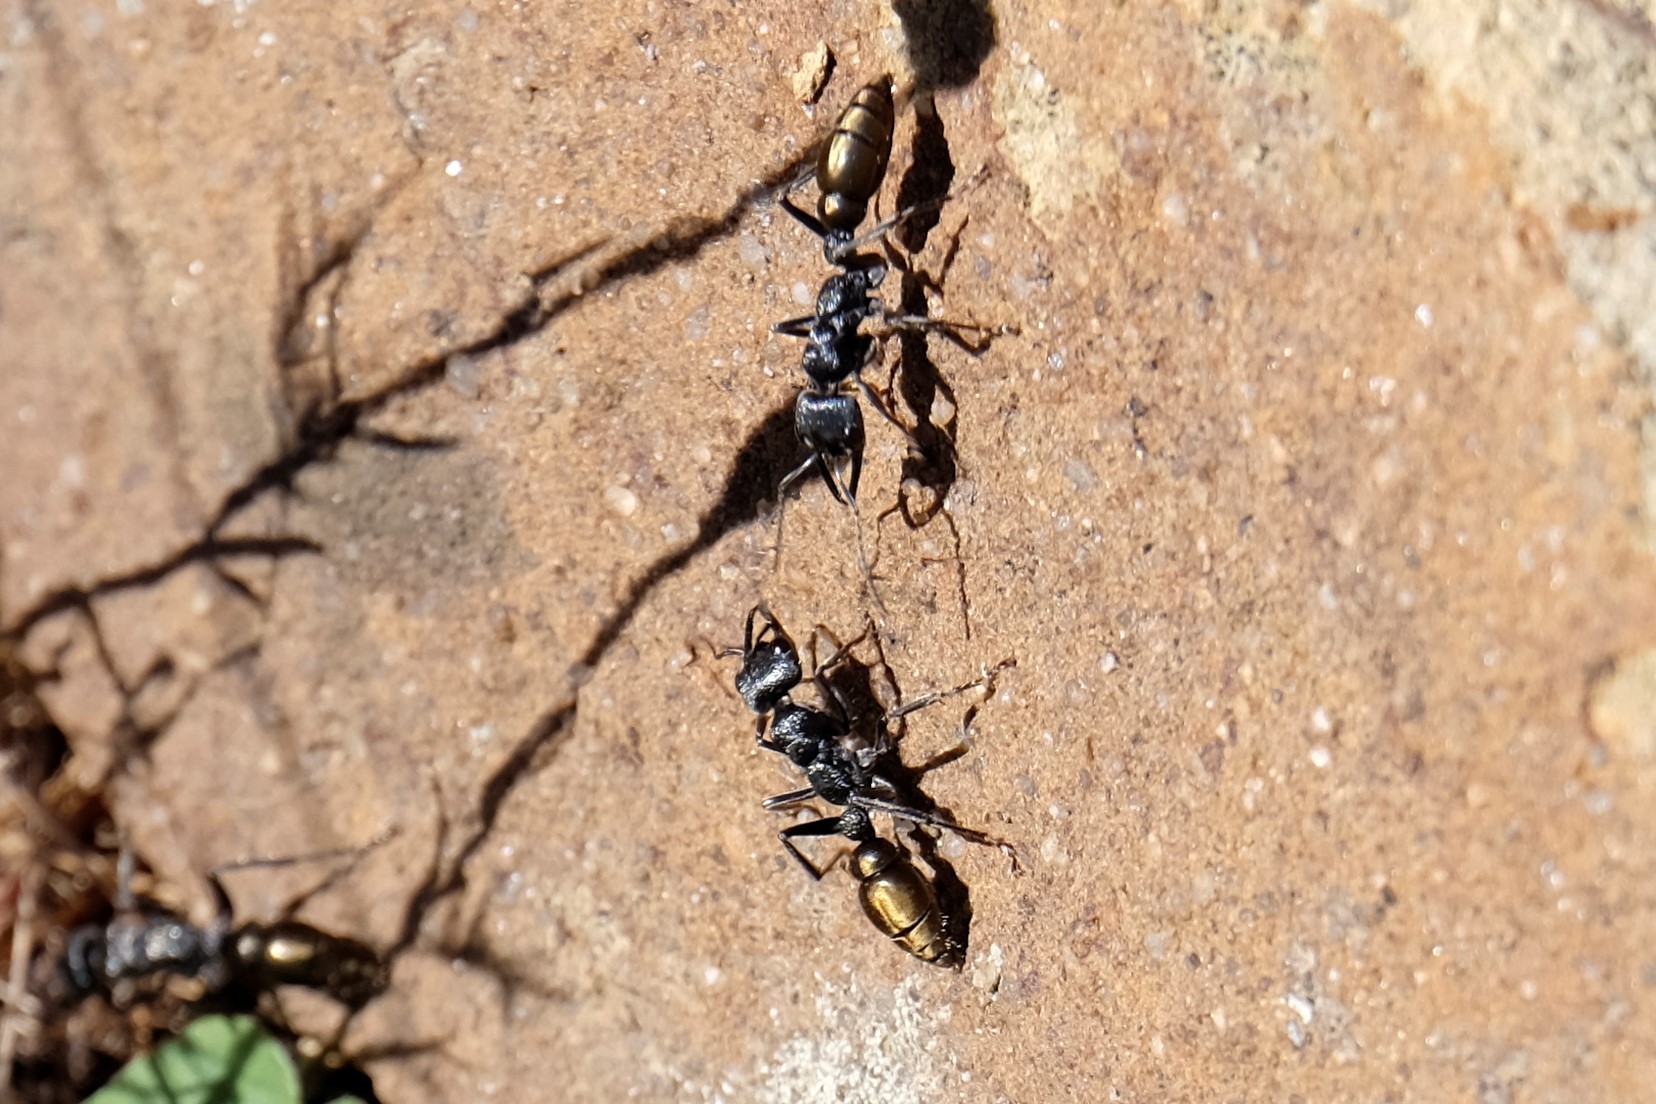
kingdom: Animalia
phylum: Arthropoda
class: Insecta
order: Hymenoptera
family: Formicidae
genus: Myrmecia
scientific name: Myrmecia piliventris
